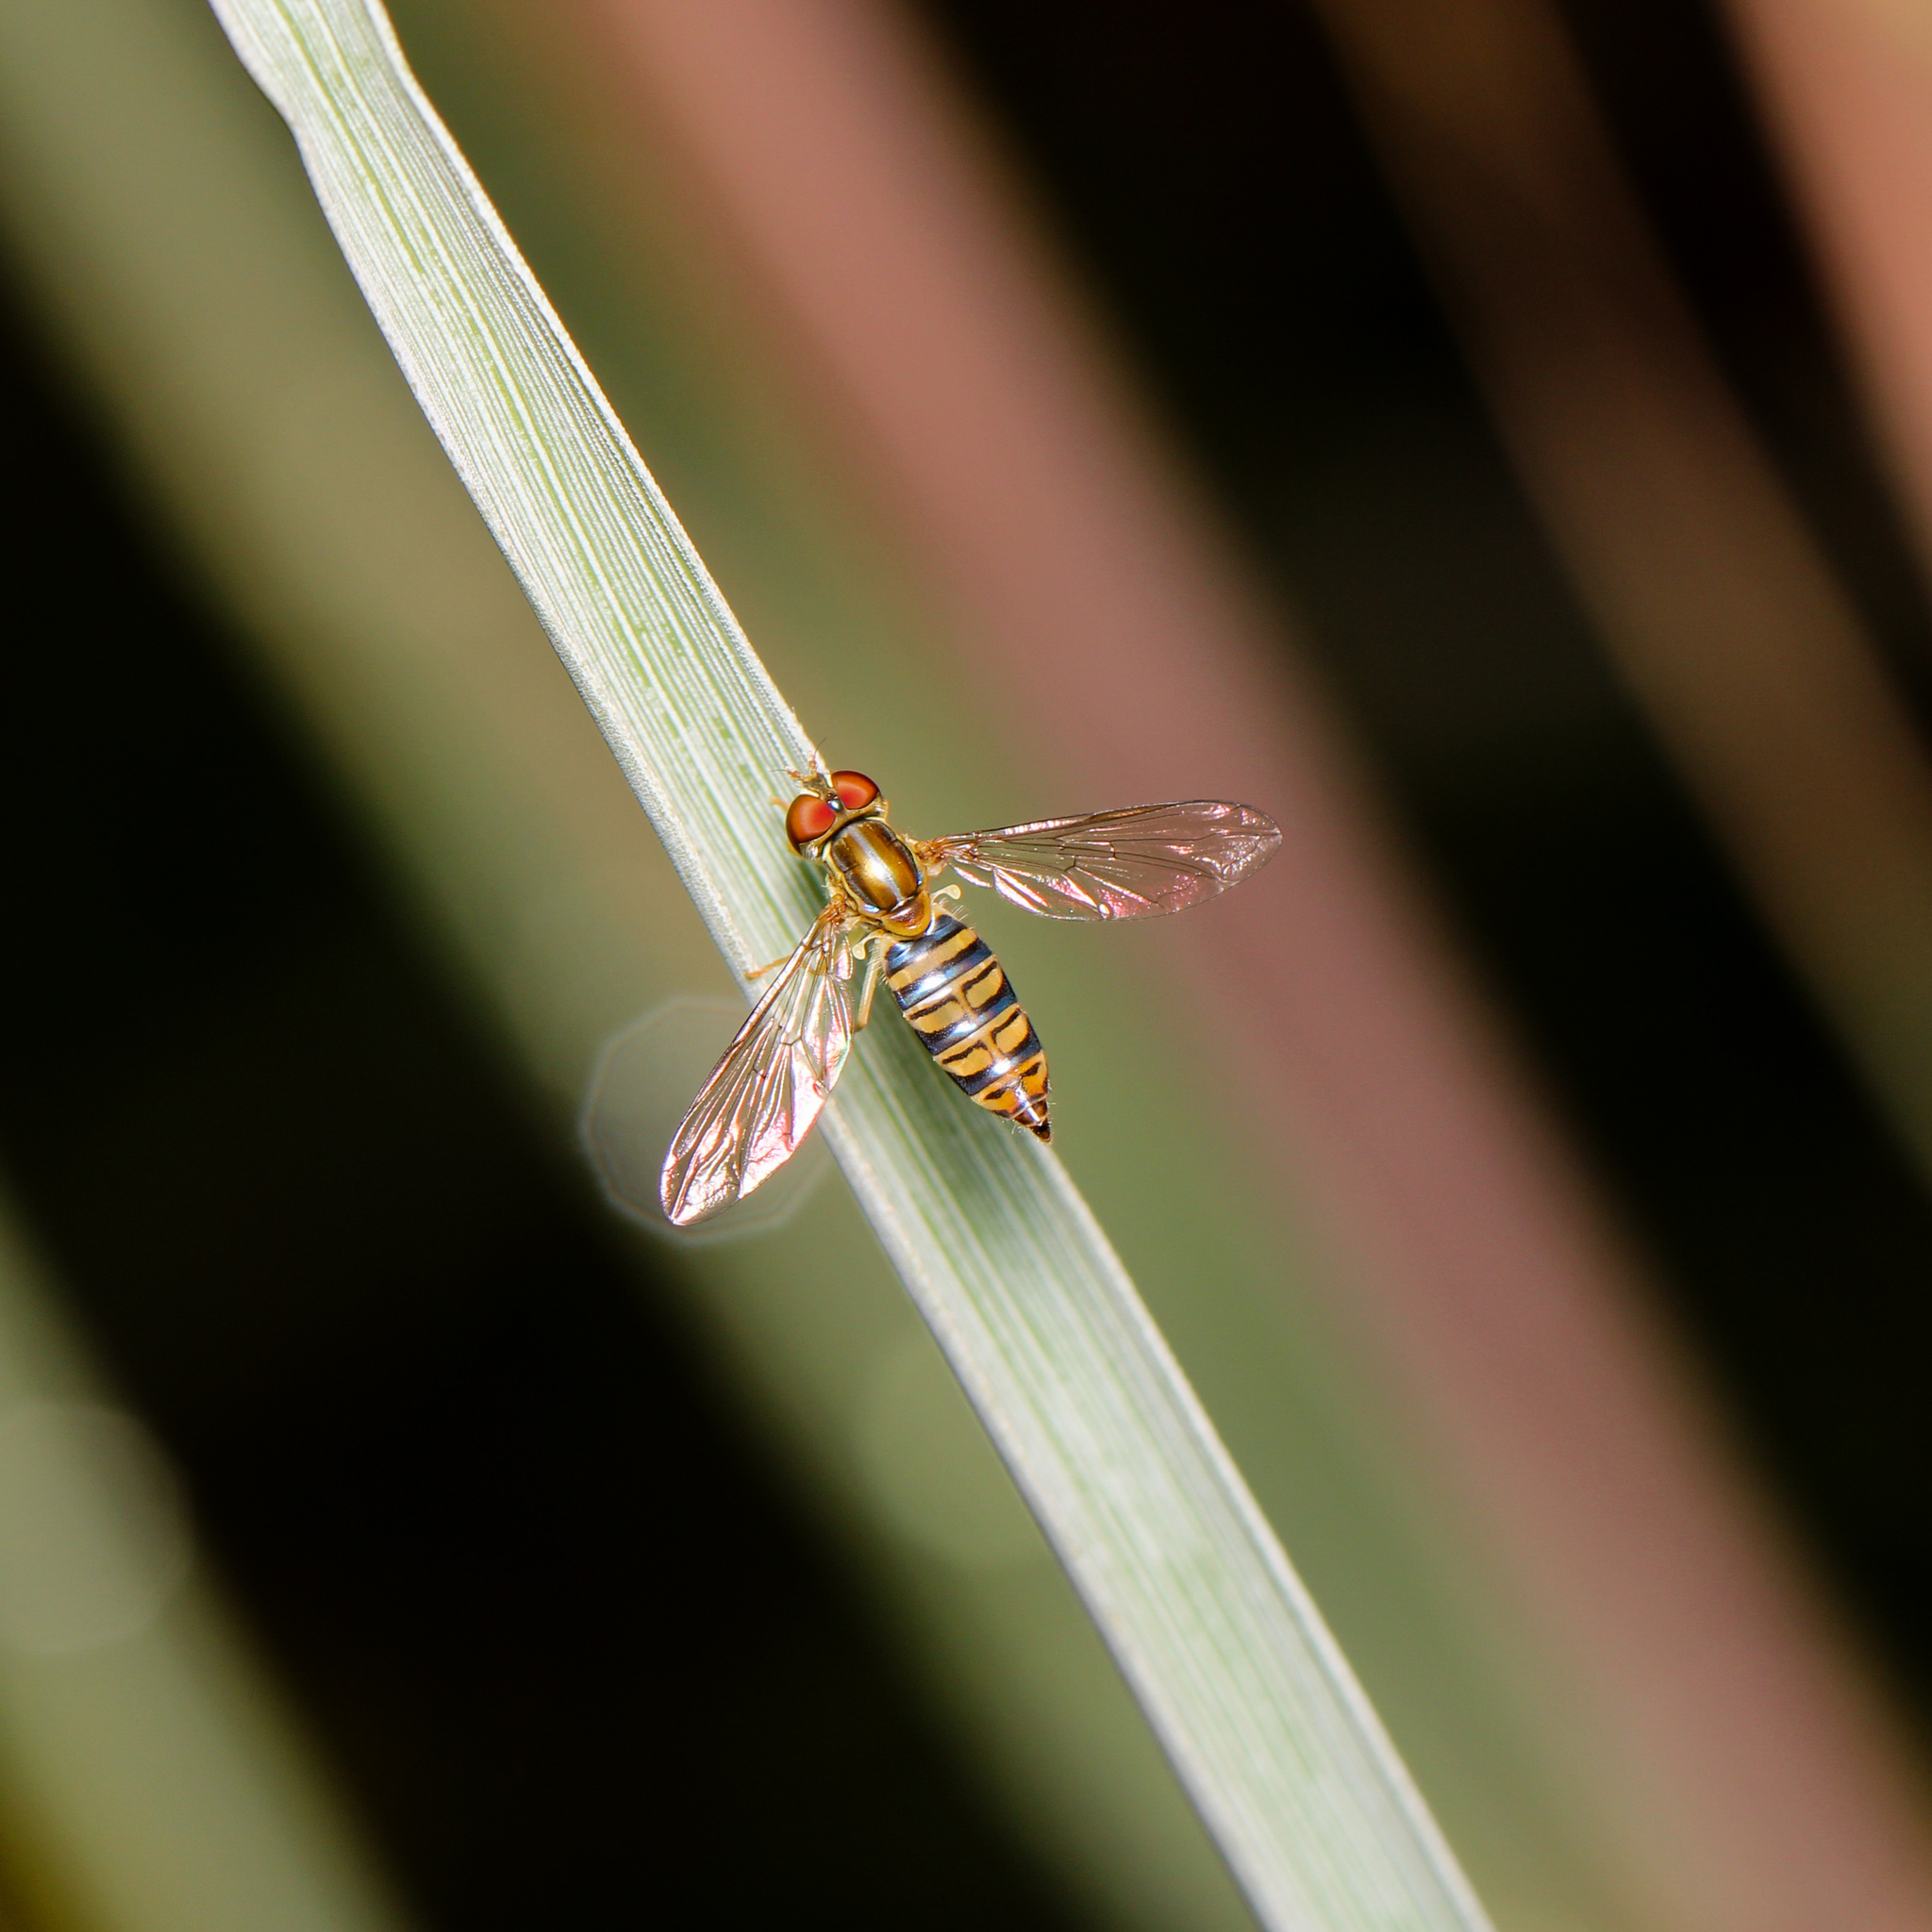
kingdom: Animalia
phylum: Arthropoda
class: Insecta
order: Diptera
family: Syrphidae
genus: Toxomerus
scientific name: Toxomerus politus
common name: Maize calligrapher
